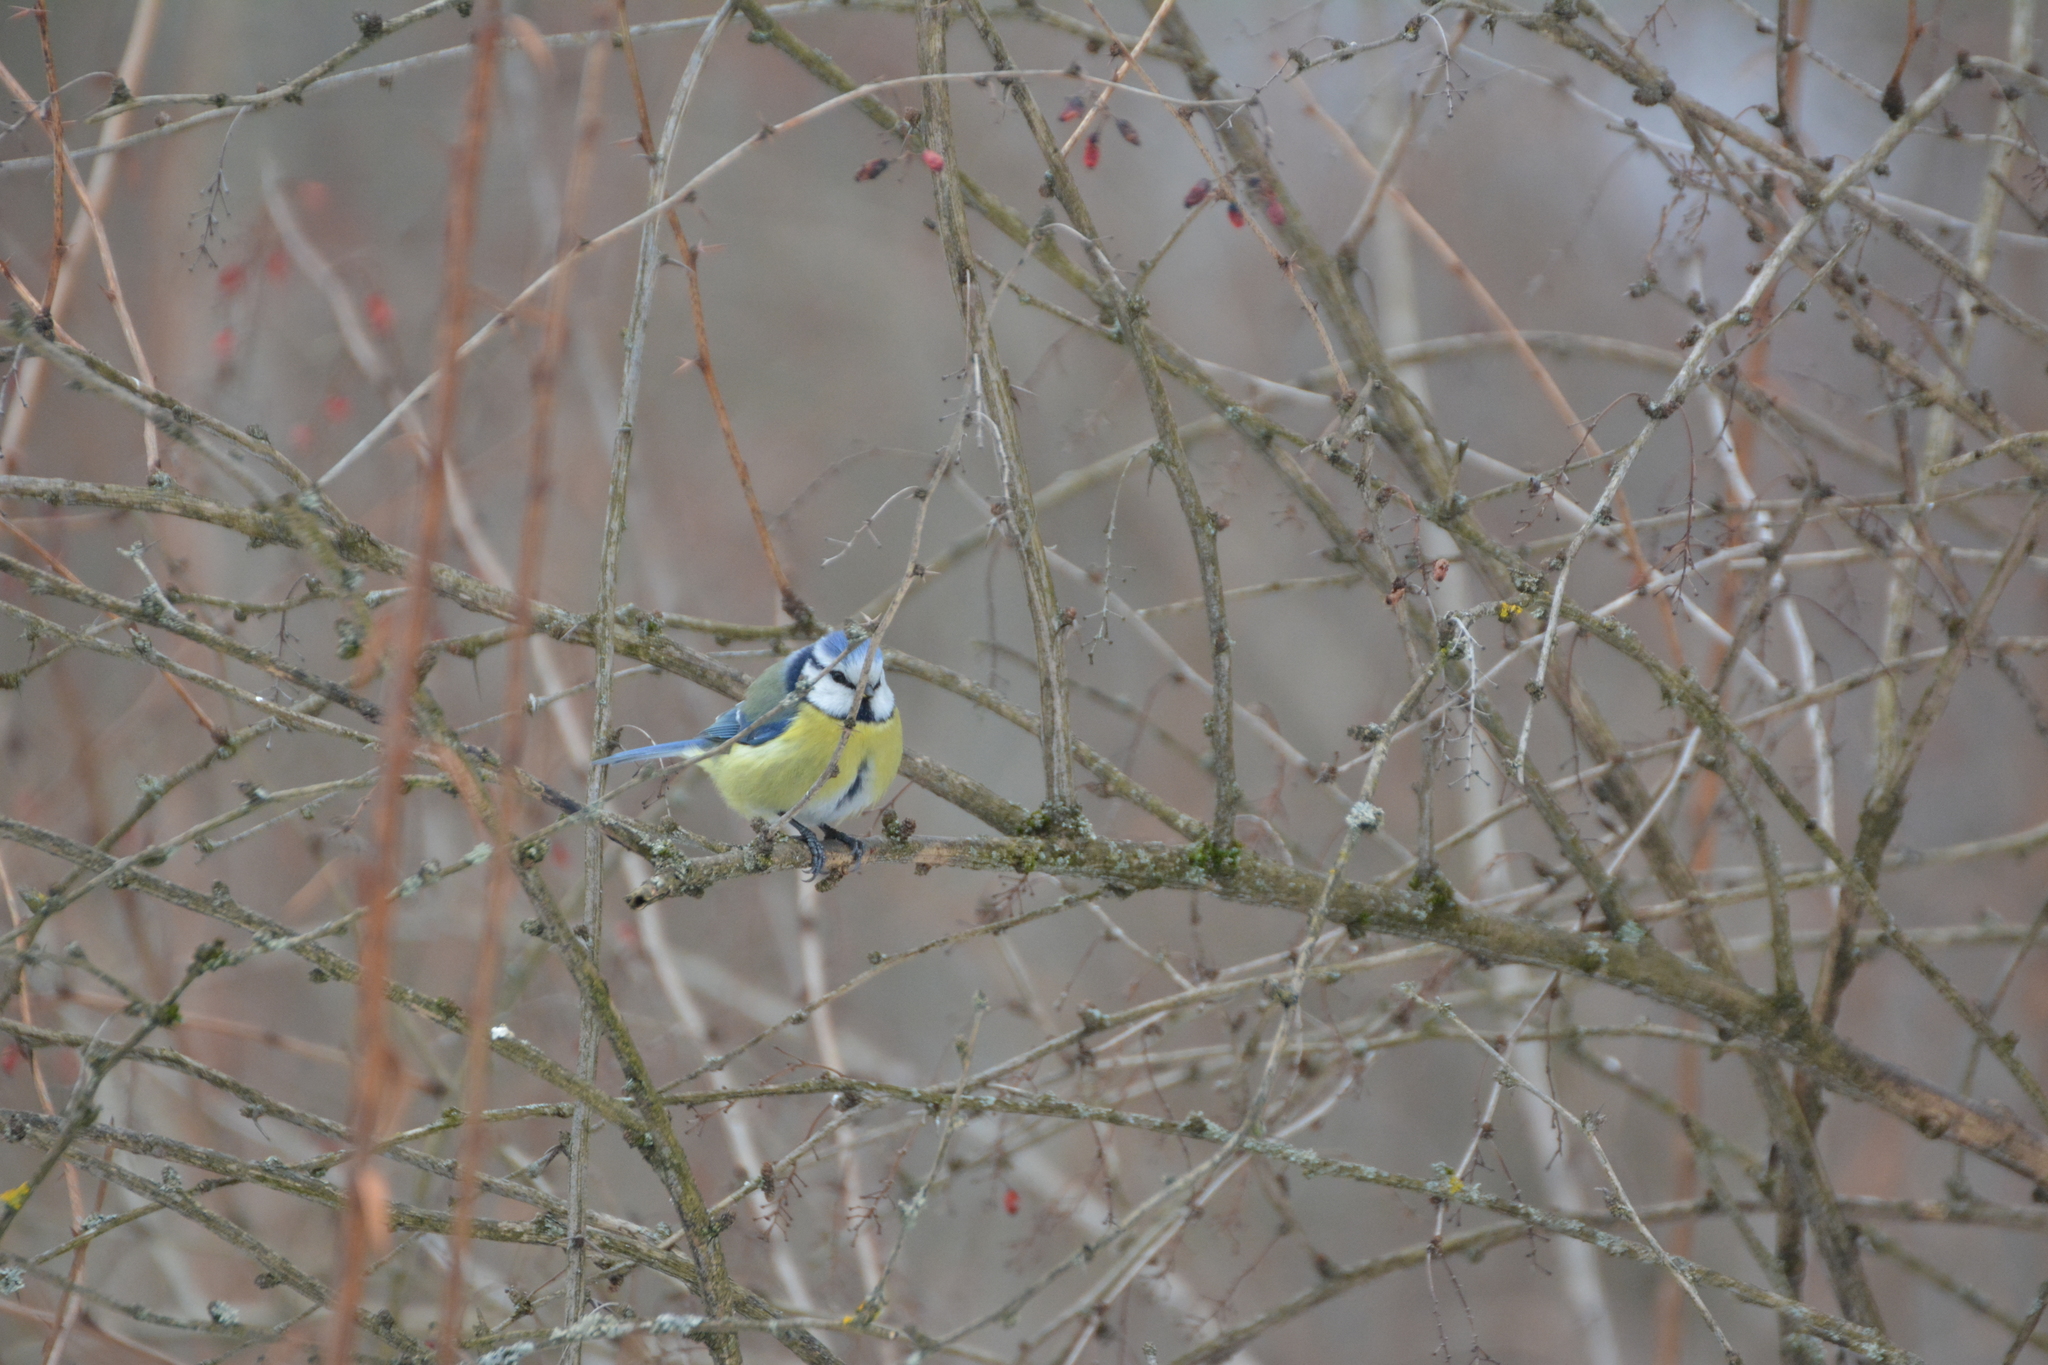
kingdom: Animalia
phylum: Chordata
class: Aves
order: Passeriformes
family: Paridae
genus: Cyanistes
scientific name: Cyanistes caeruleus
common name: Eurasian blue tit
